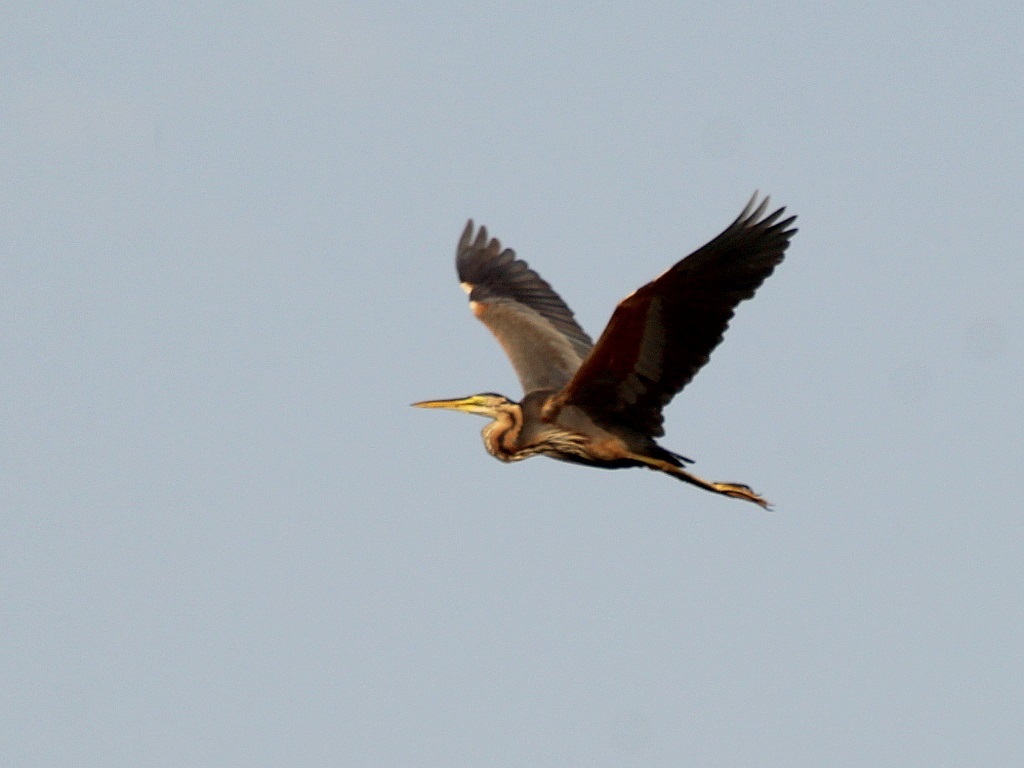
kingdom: Animalia
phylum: Chordata
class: Aves
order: Pelecaniformes
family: Ardeidae
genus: Ardea
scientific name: Ardea purpurea
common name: Purple heron
